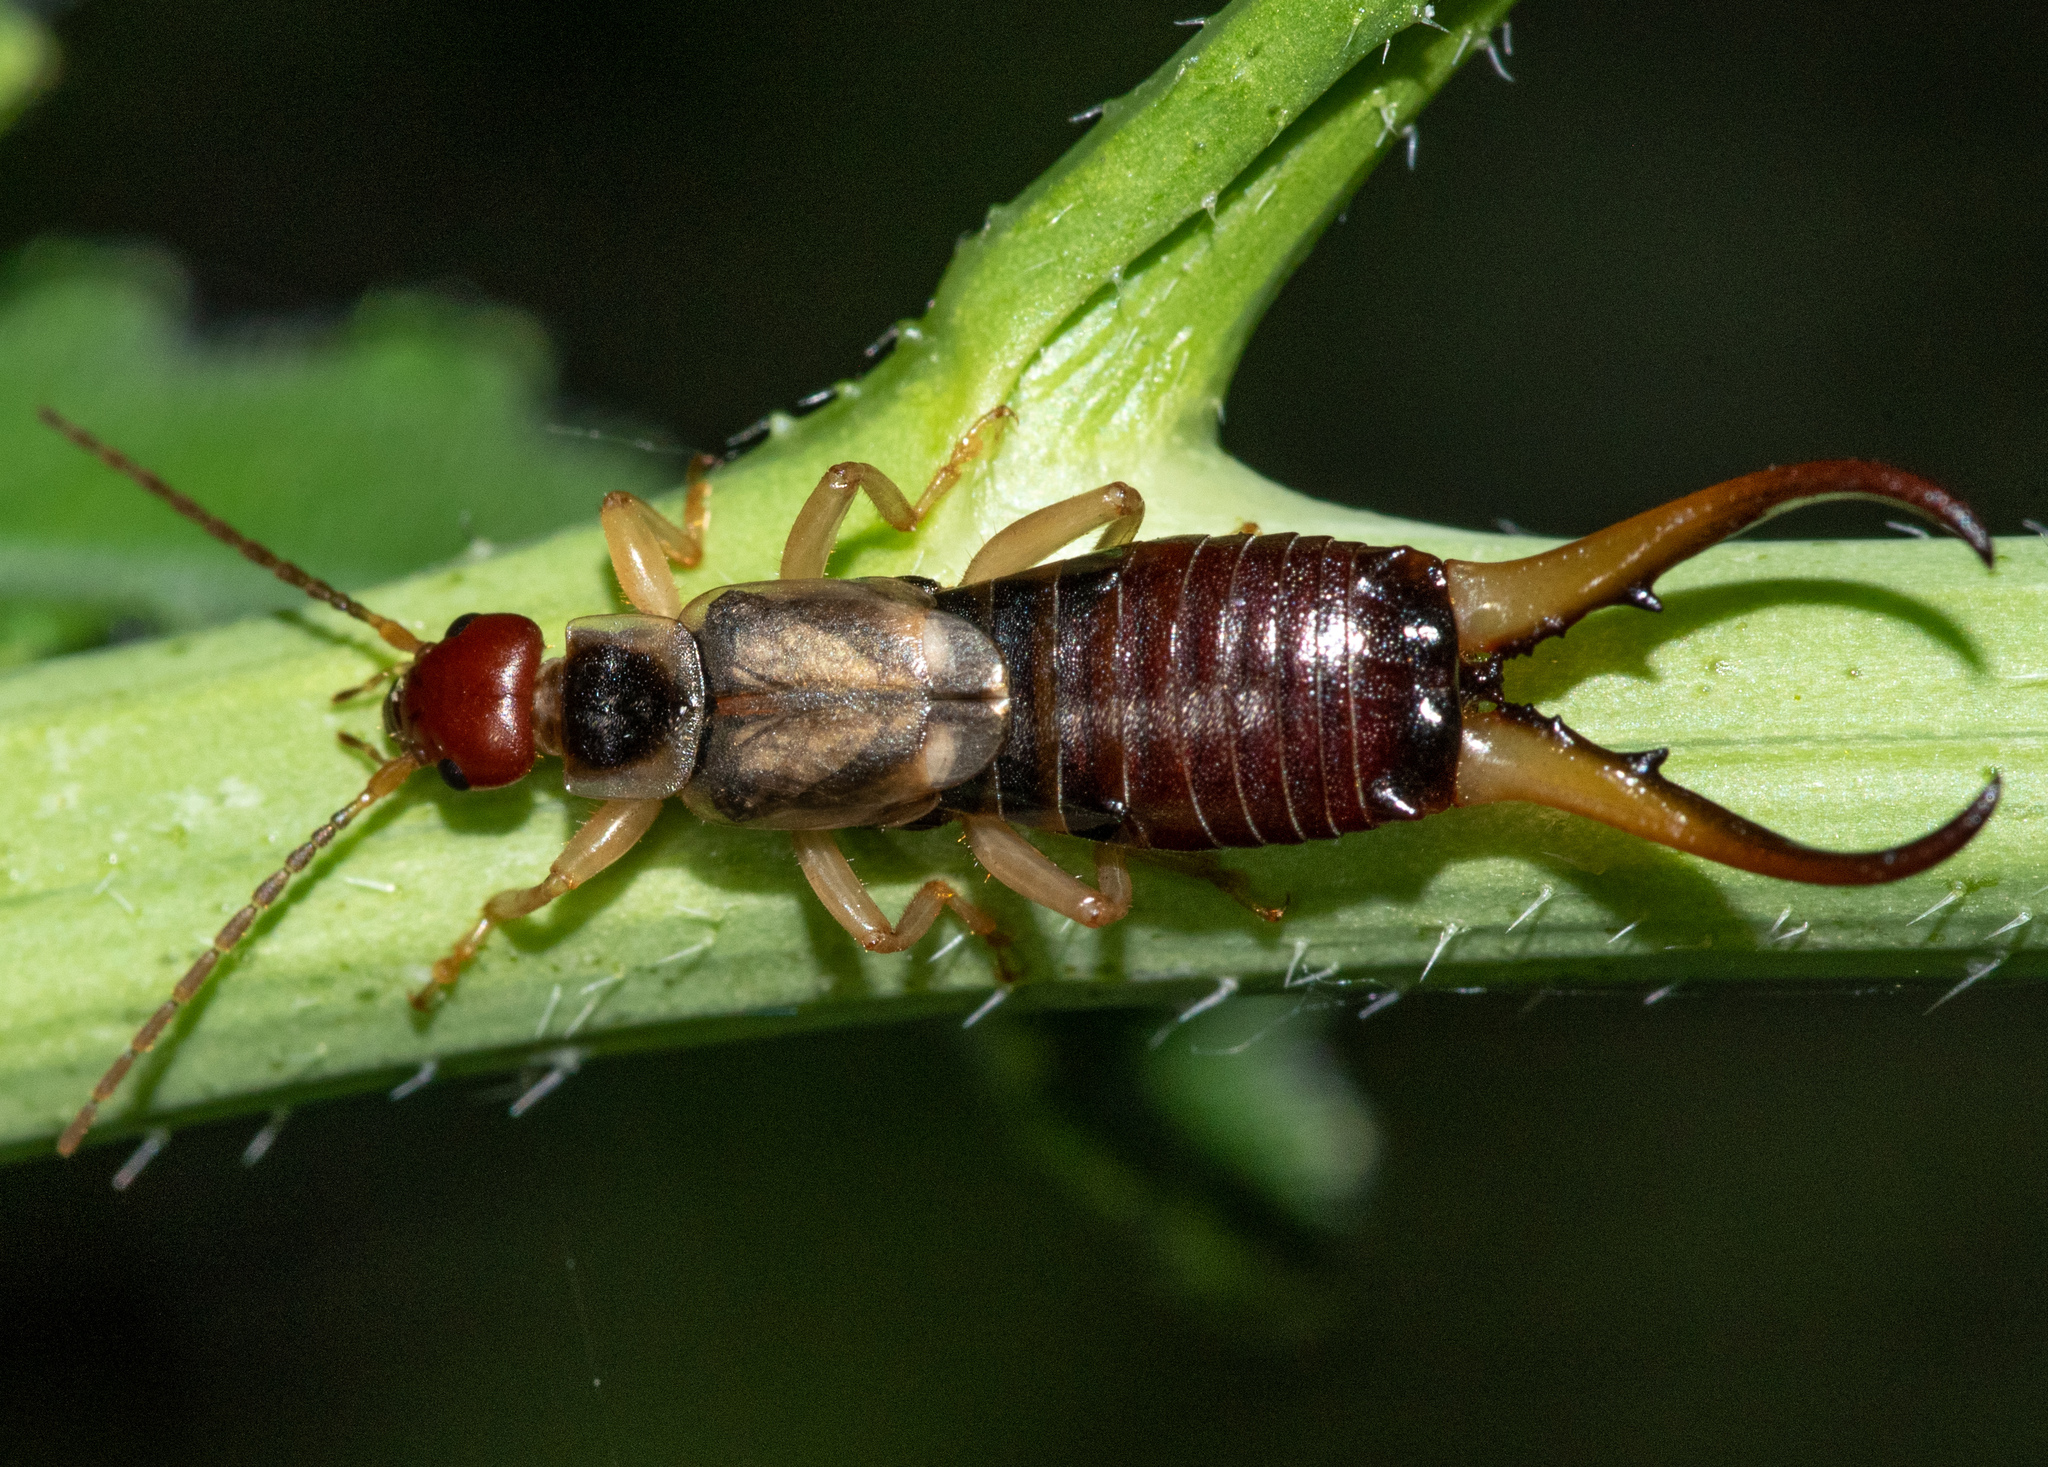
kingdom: Animalia
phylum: Arthropoda
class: Insecta
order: Dermaptera
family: Forficulidae
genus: Forficula
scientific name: Forficula
